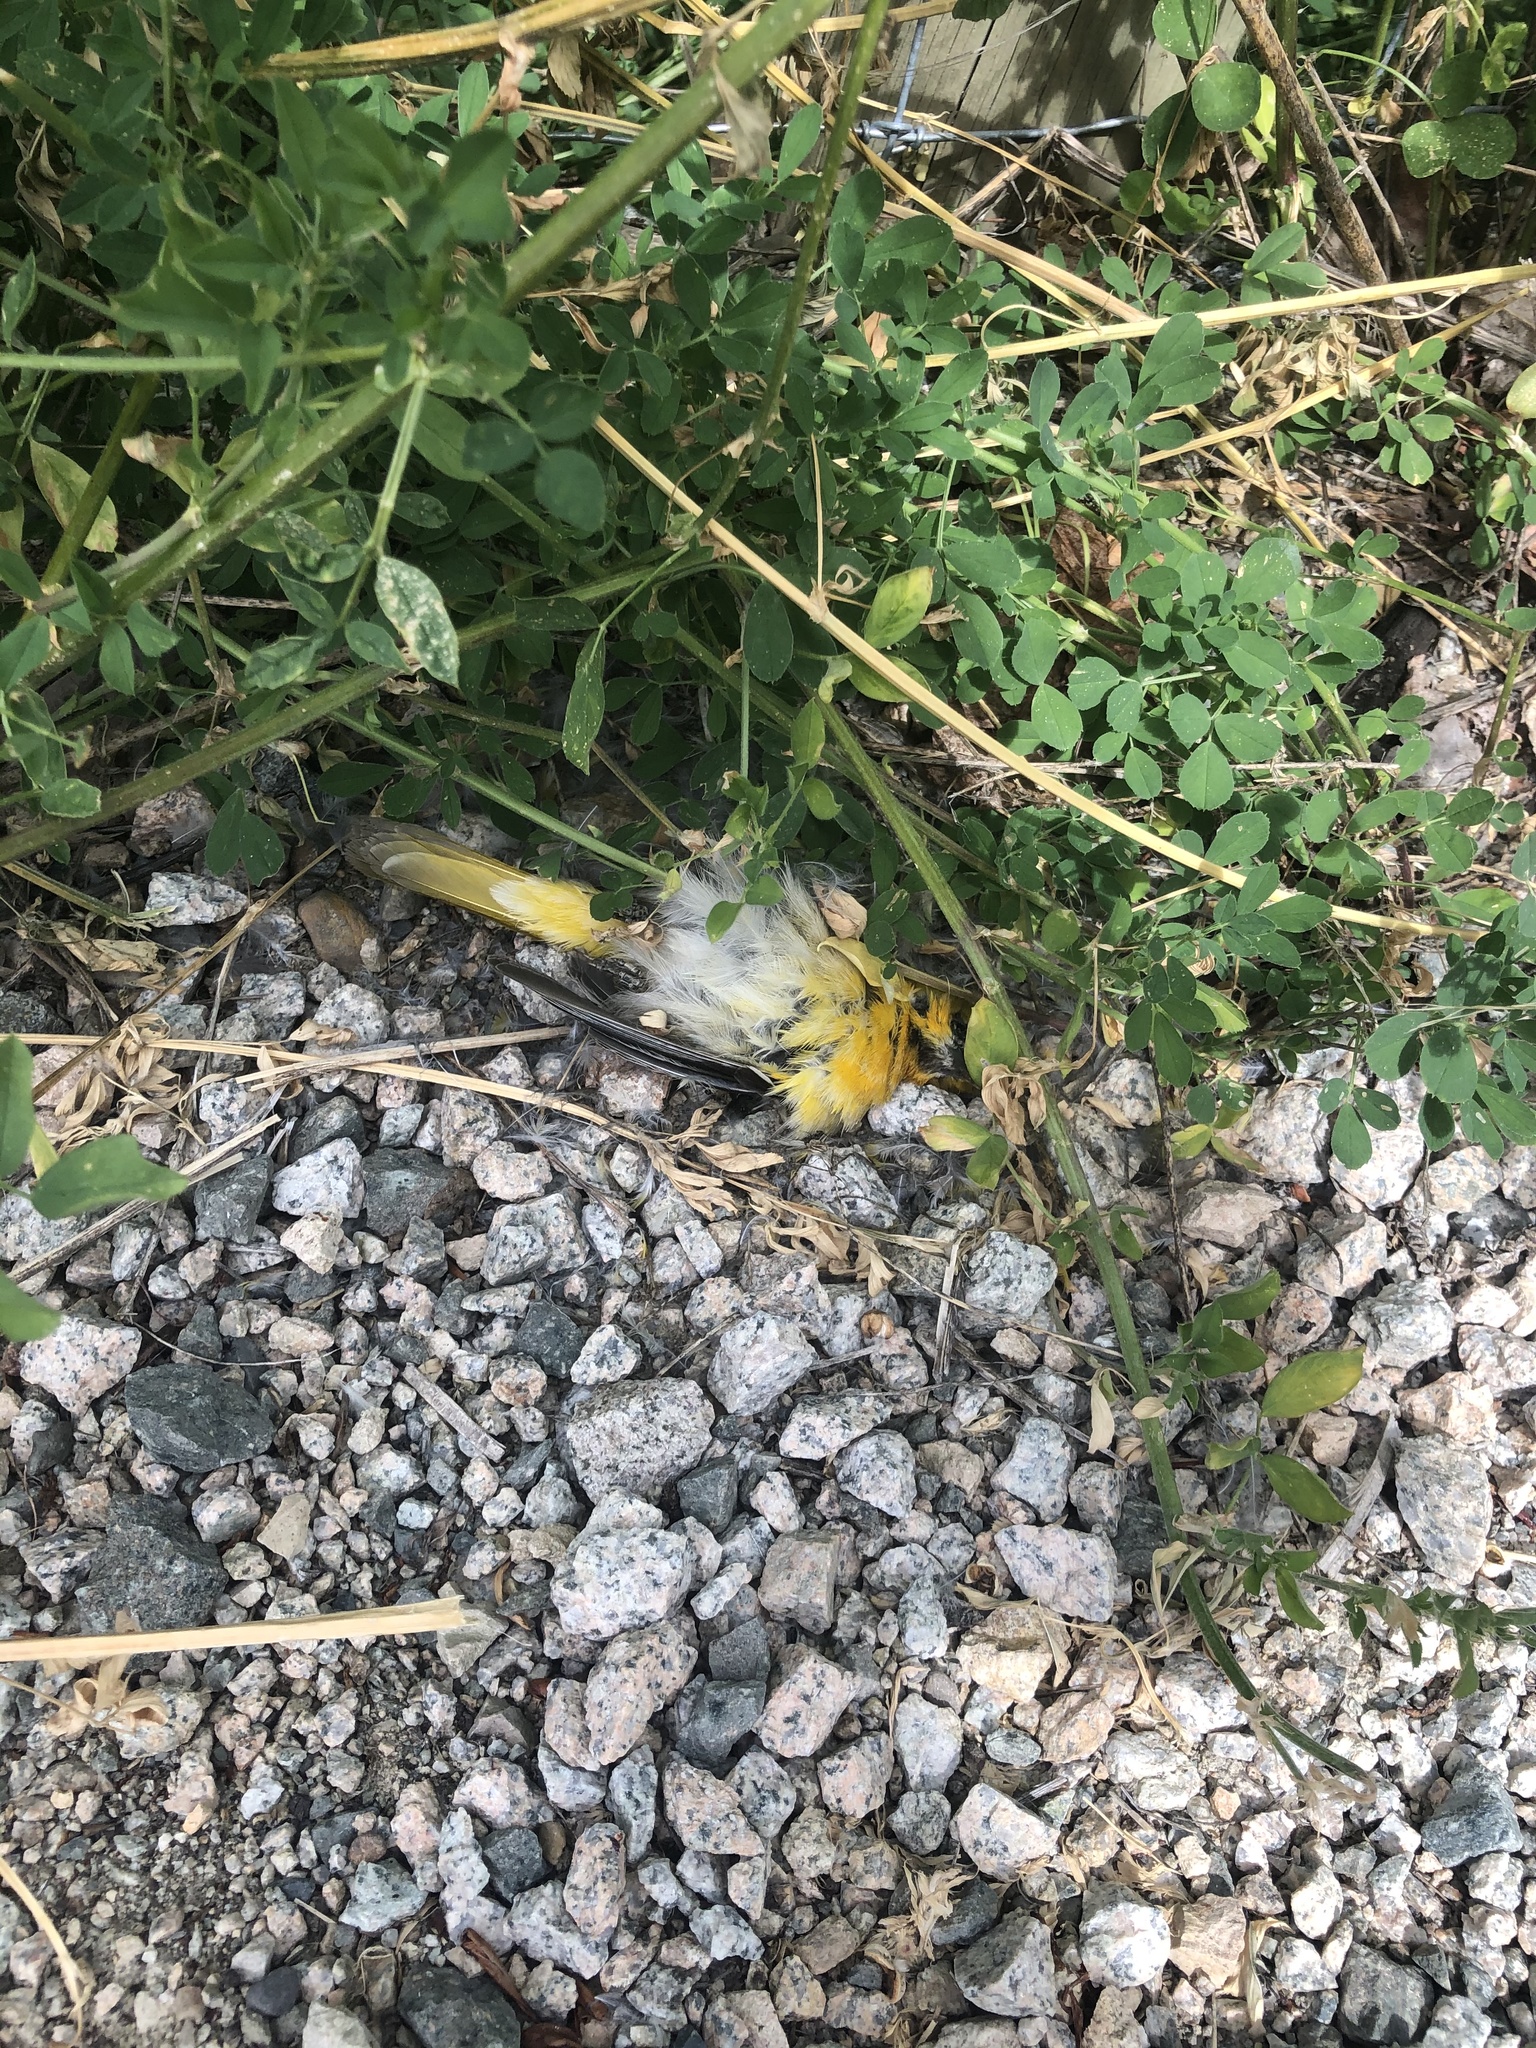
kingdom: Animalia
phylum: Chordata
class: Aves
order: Passeriformes
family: Icteridae
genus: Icterus
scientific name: Icterus bullockii
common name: Bullock's oriole
